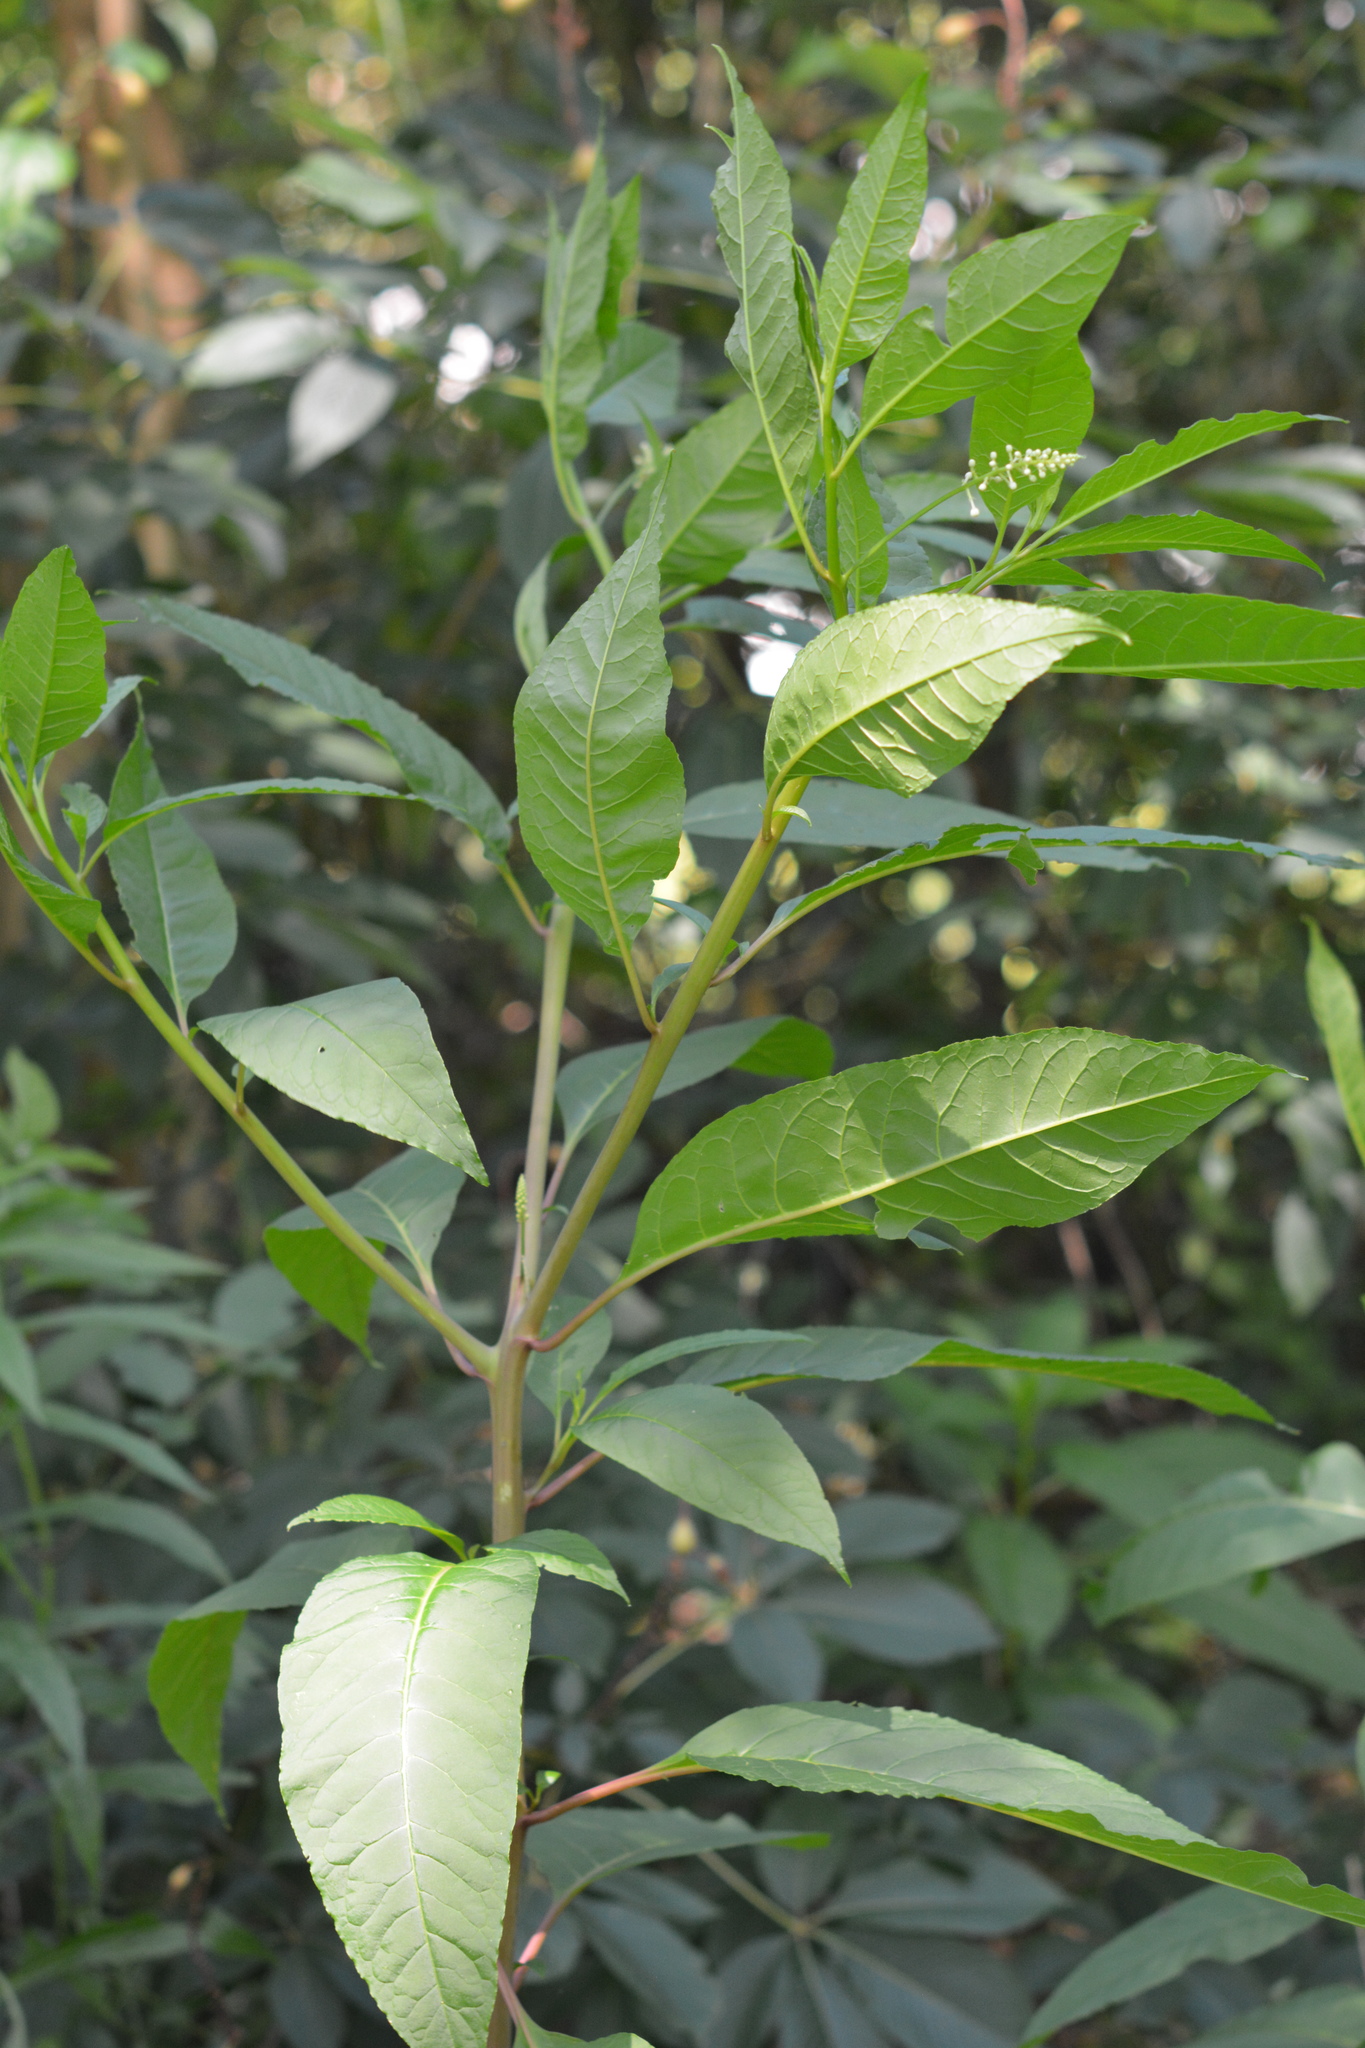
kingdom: Plantae
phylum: Tracheophyta
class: Magnoliopsida
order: Caryophyllales
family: Phytolaccaceae
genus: Phytolacca
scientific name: Phytolacca americana
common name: American pokeweed
